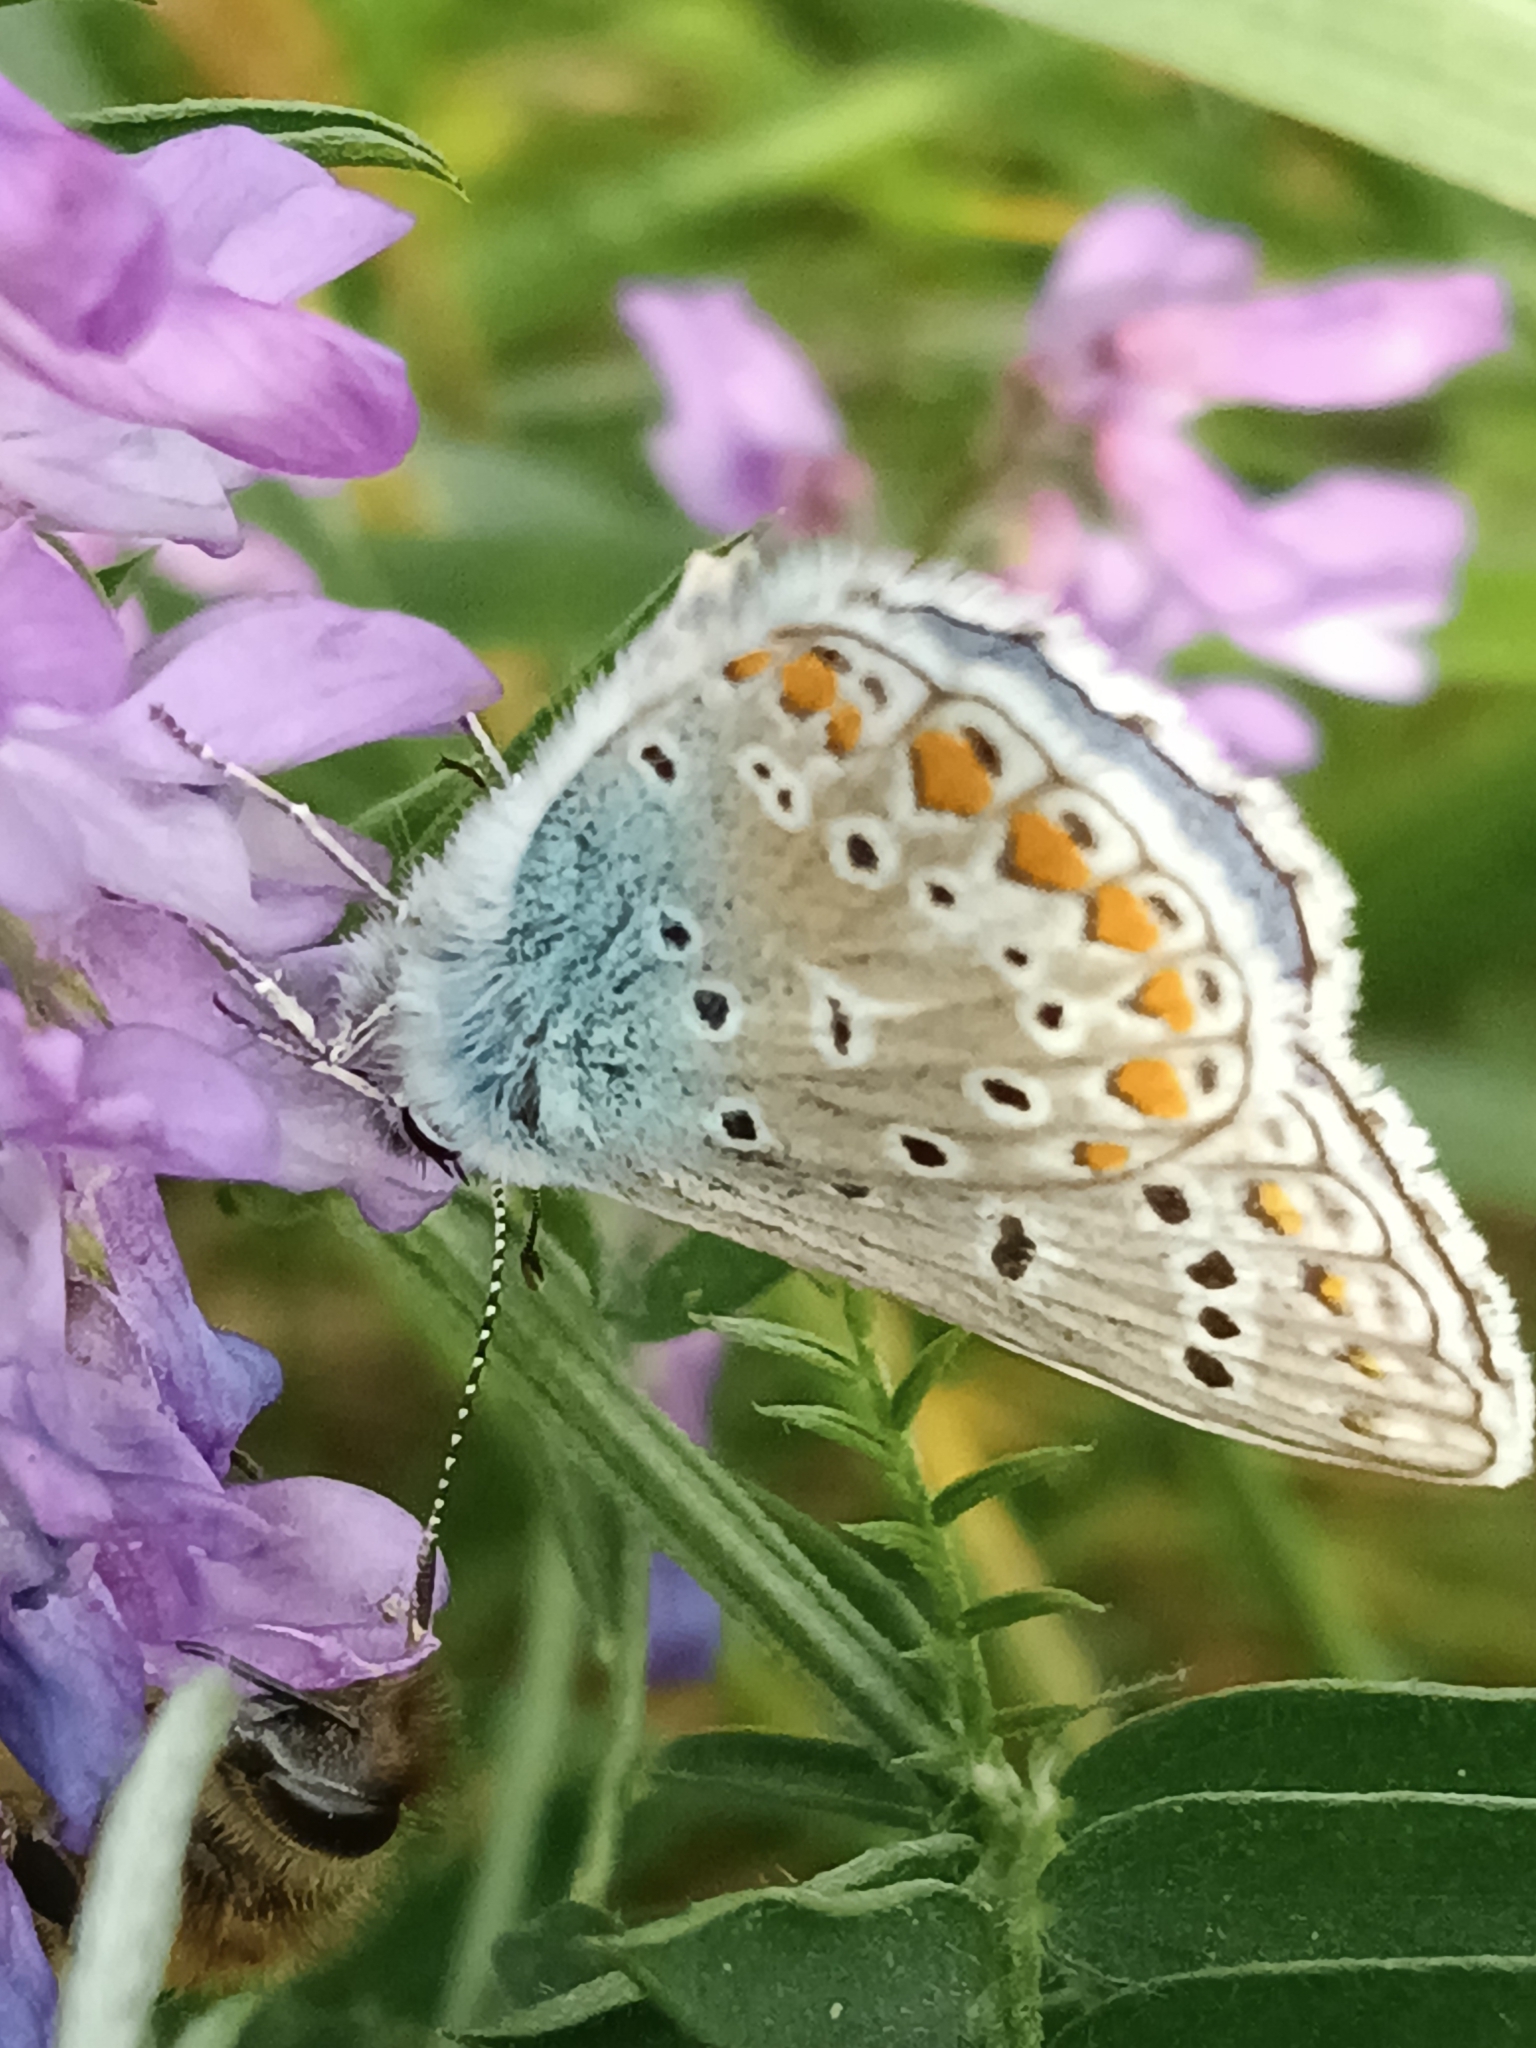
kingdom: Animalia
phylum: Arthropoda
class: Insecta
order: Lepidoptera
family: Lycaenidae
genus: Polyommatus
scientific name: Polyommatus icarus
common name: Common blue
